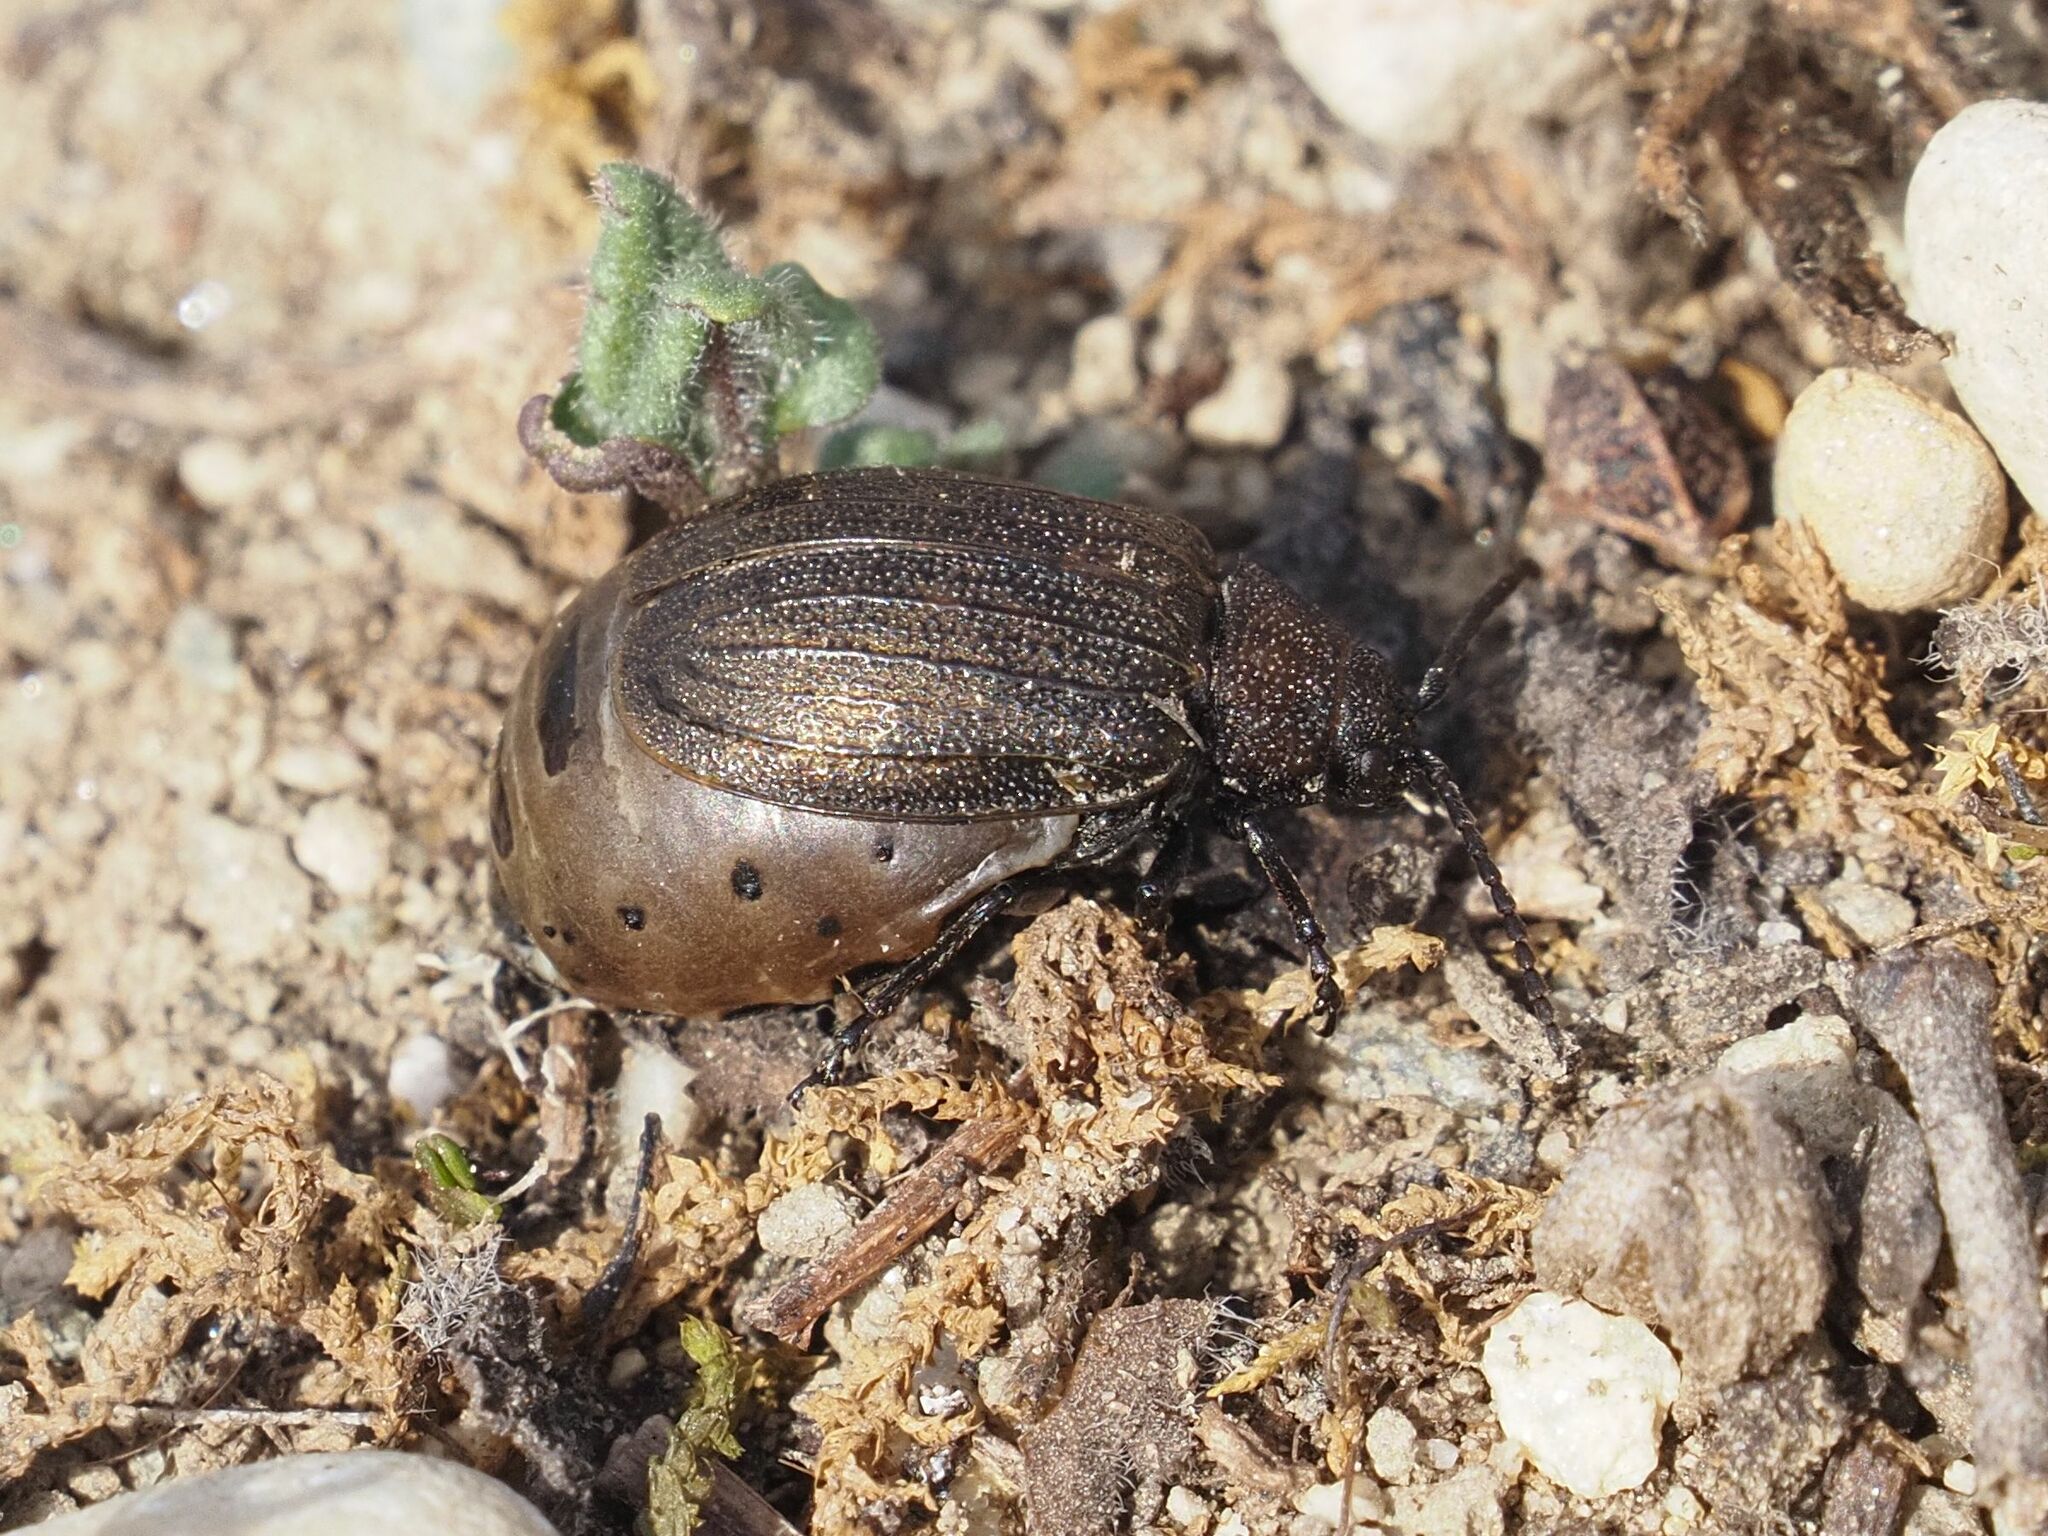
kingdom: Animalia
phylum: Arthropoda
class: Insecta
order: Coleoptera
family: Chrysomelidae
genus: Galeruca
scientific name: Galeruca pomonae
